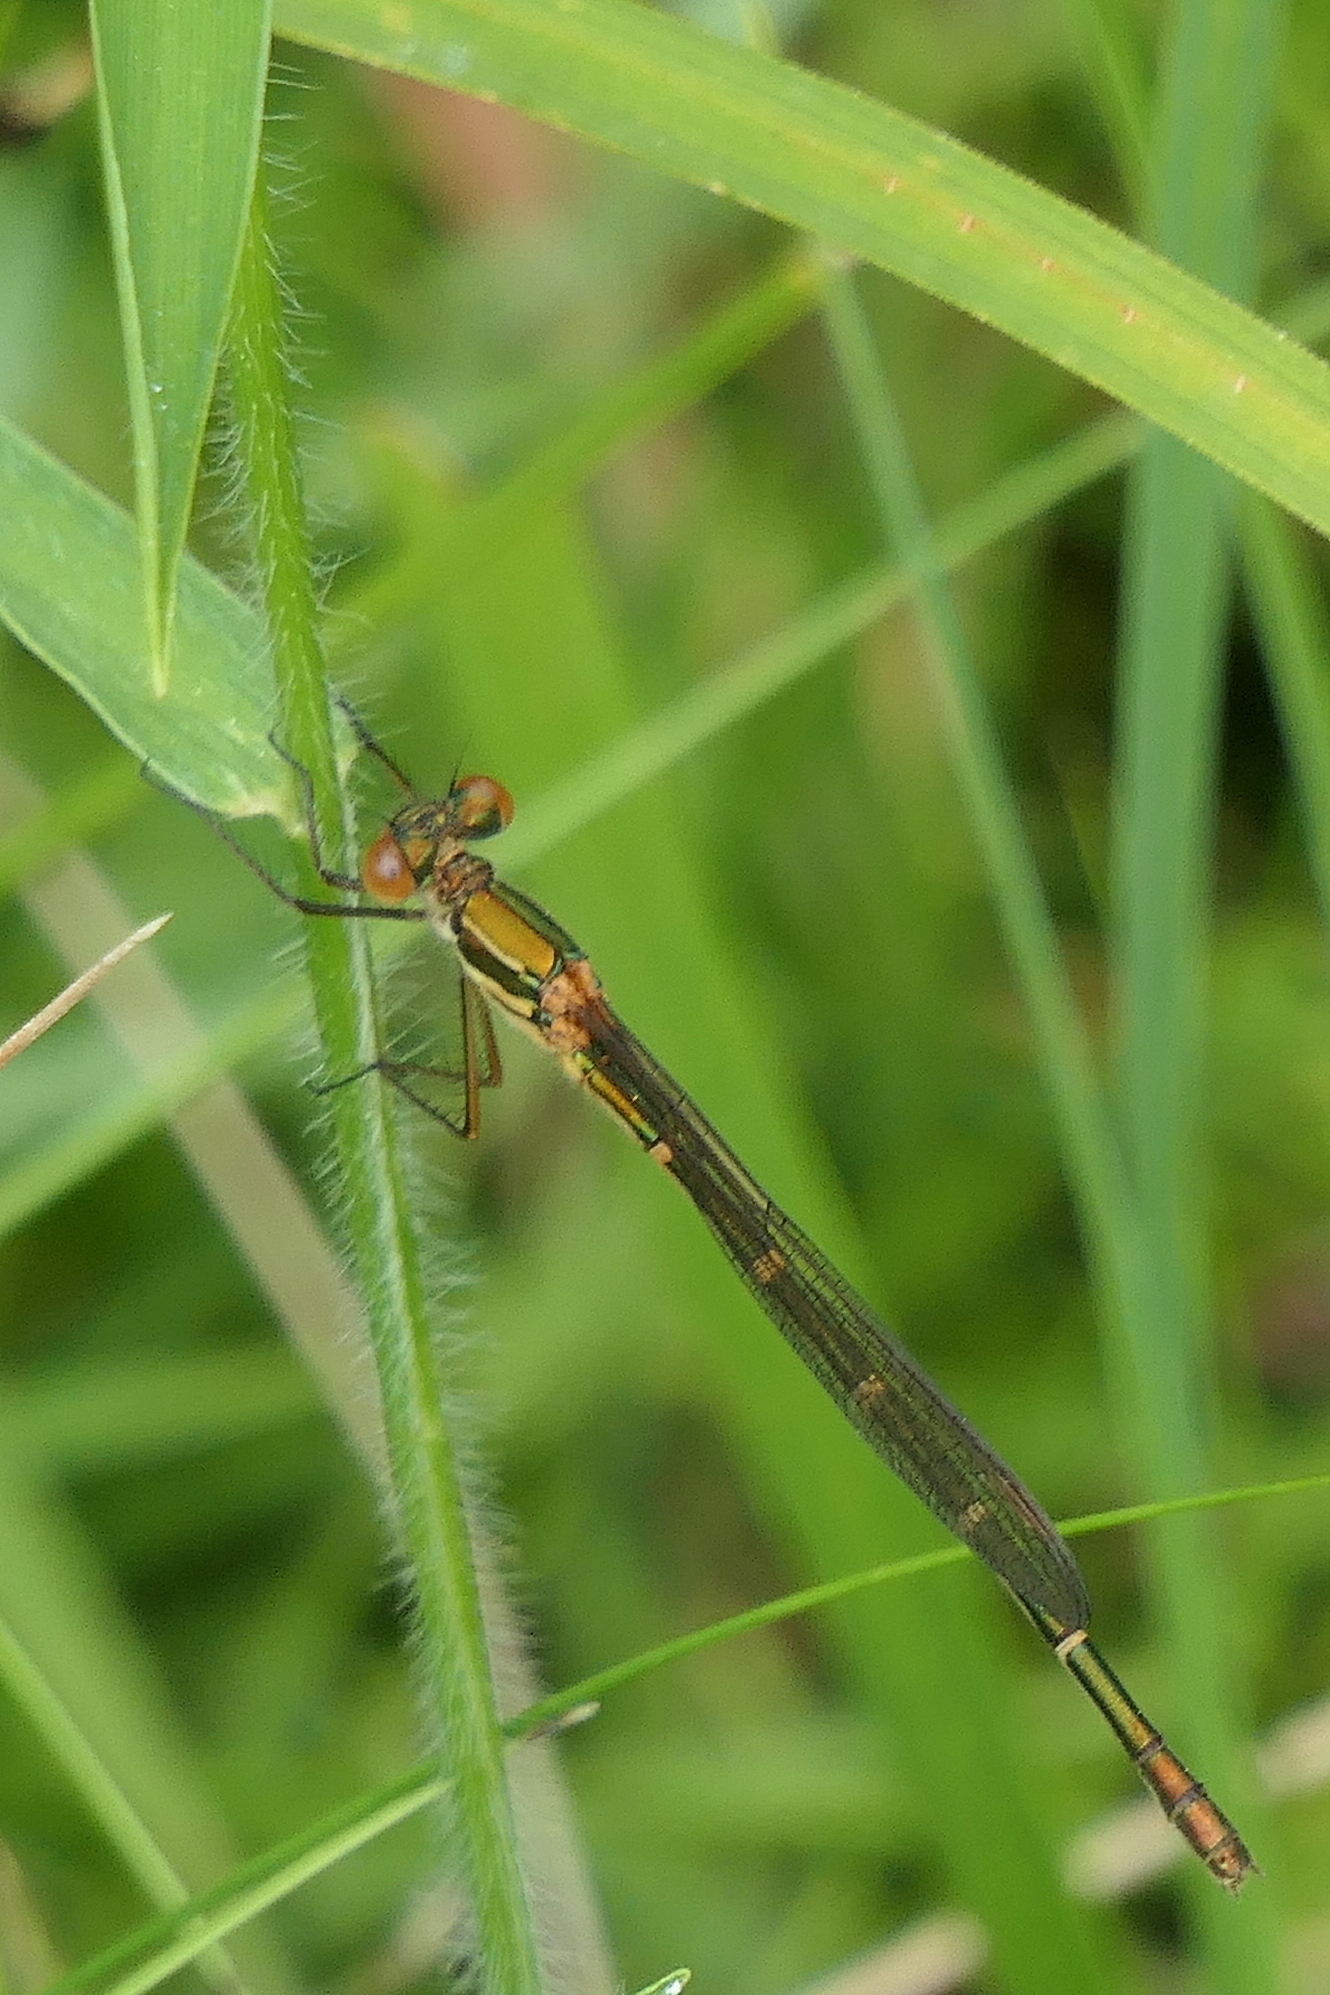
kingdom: Animalia
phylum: Arthropoda
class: Insecta
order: Odonata
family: Lestidae
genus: Austrolestes
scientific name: Austrolestes psyche
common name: Cup ringtail
